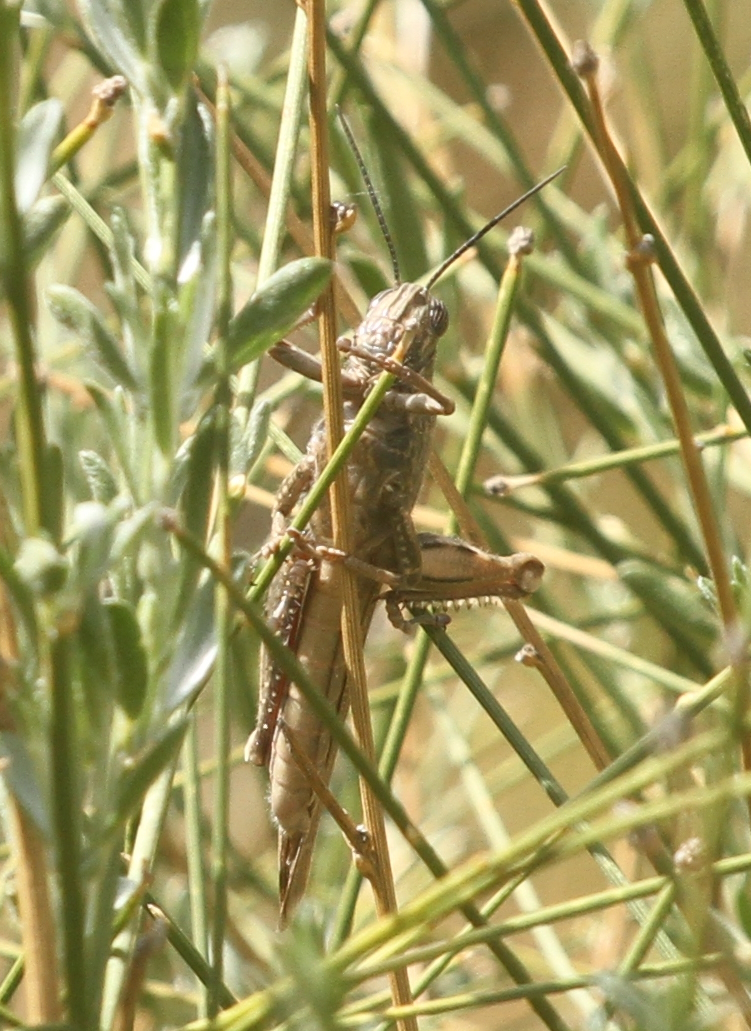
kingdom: Animalia
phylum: Arthropoda
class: Insecta
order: Orthoptera
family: Acrididae
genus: Anacridium
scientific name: Anacridium aegyptium
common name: Egyptian grasshopper
